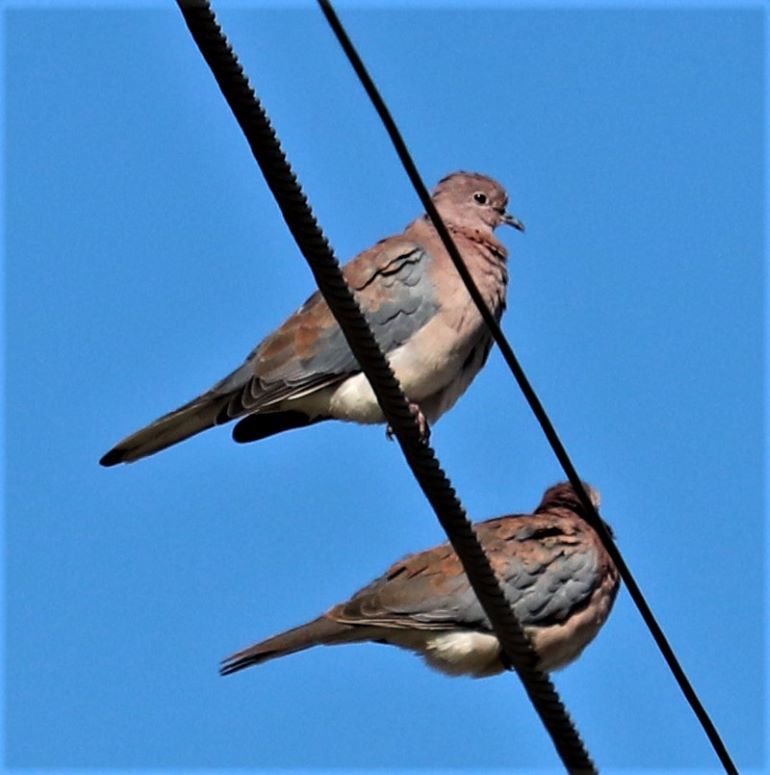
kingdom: Animalia
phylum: Chordata
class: Aves
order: Columbiformes
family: Columbidae
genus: Spilopelia
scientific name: Spilopelia senegalensis
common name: Laughing dove
